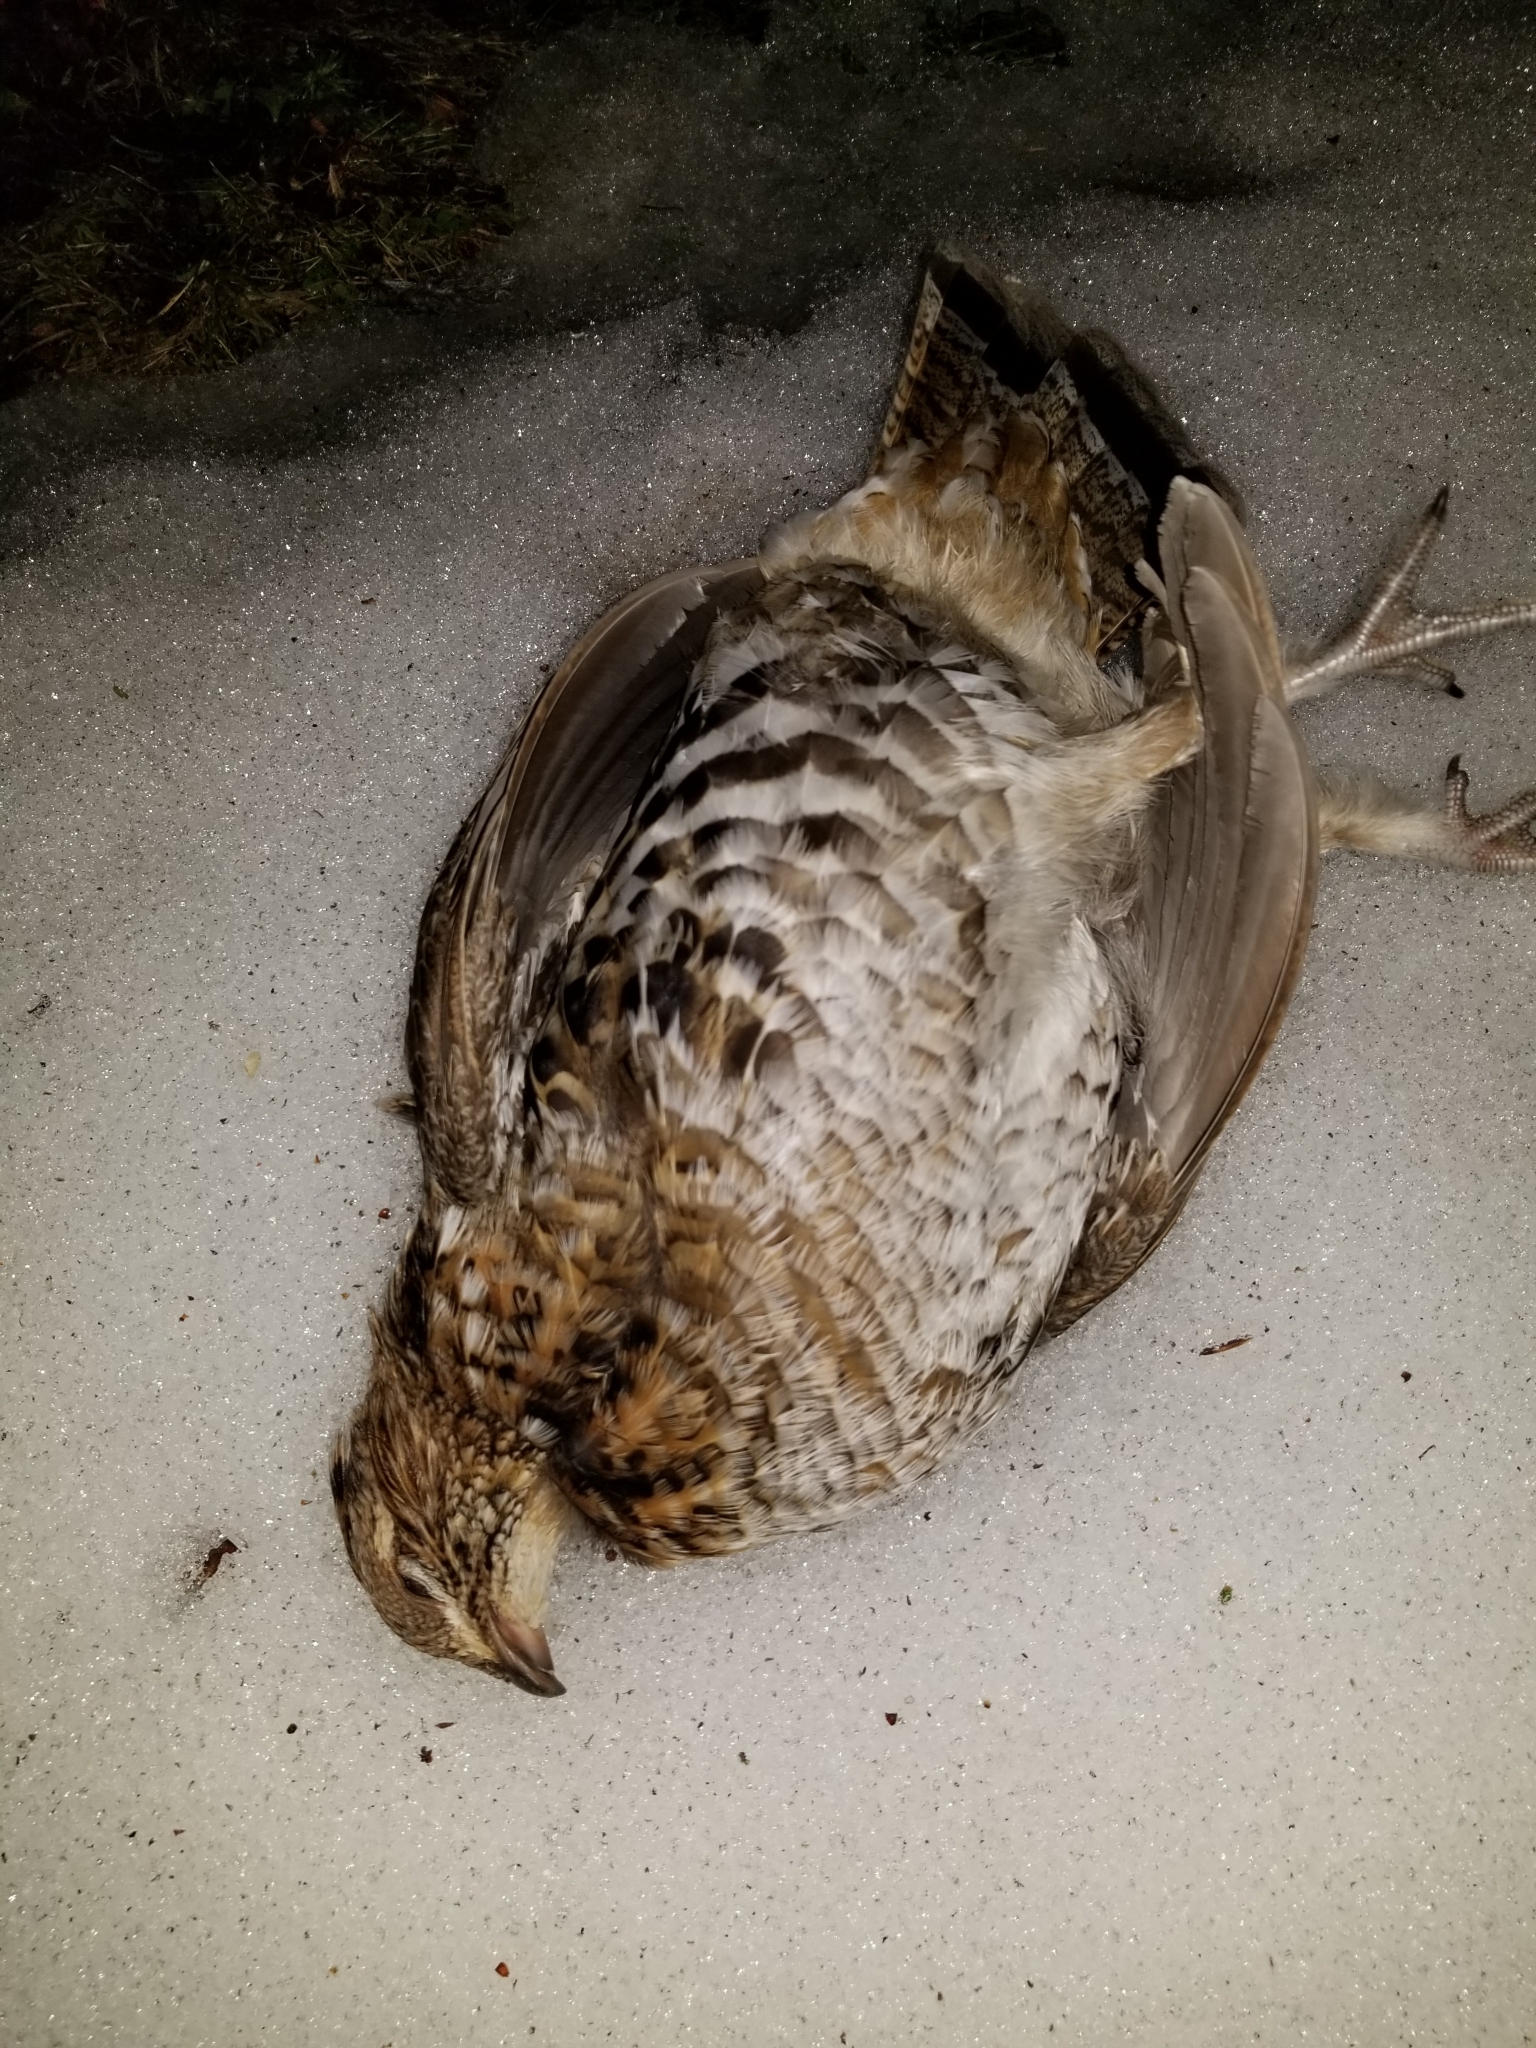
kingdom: Animalia
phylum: Chordata
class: Aves
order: Galliformes
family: Phasianidae
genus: Bonasa
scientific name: Bonasa umbellus
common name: Ruffed grouse
